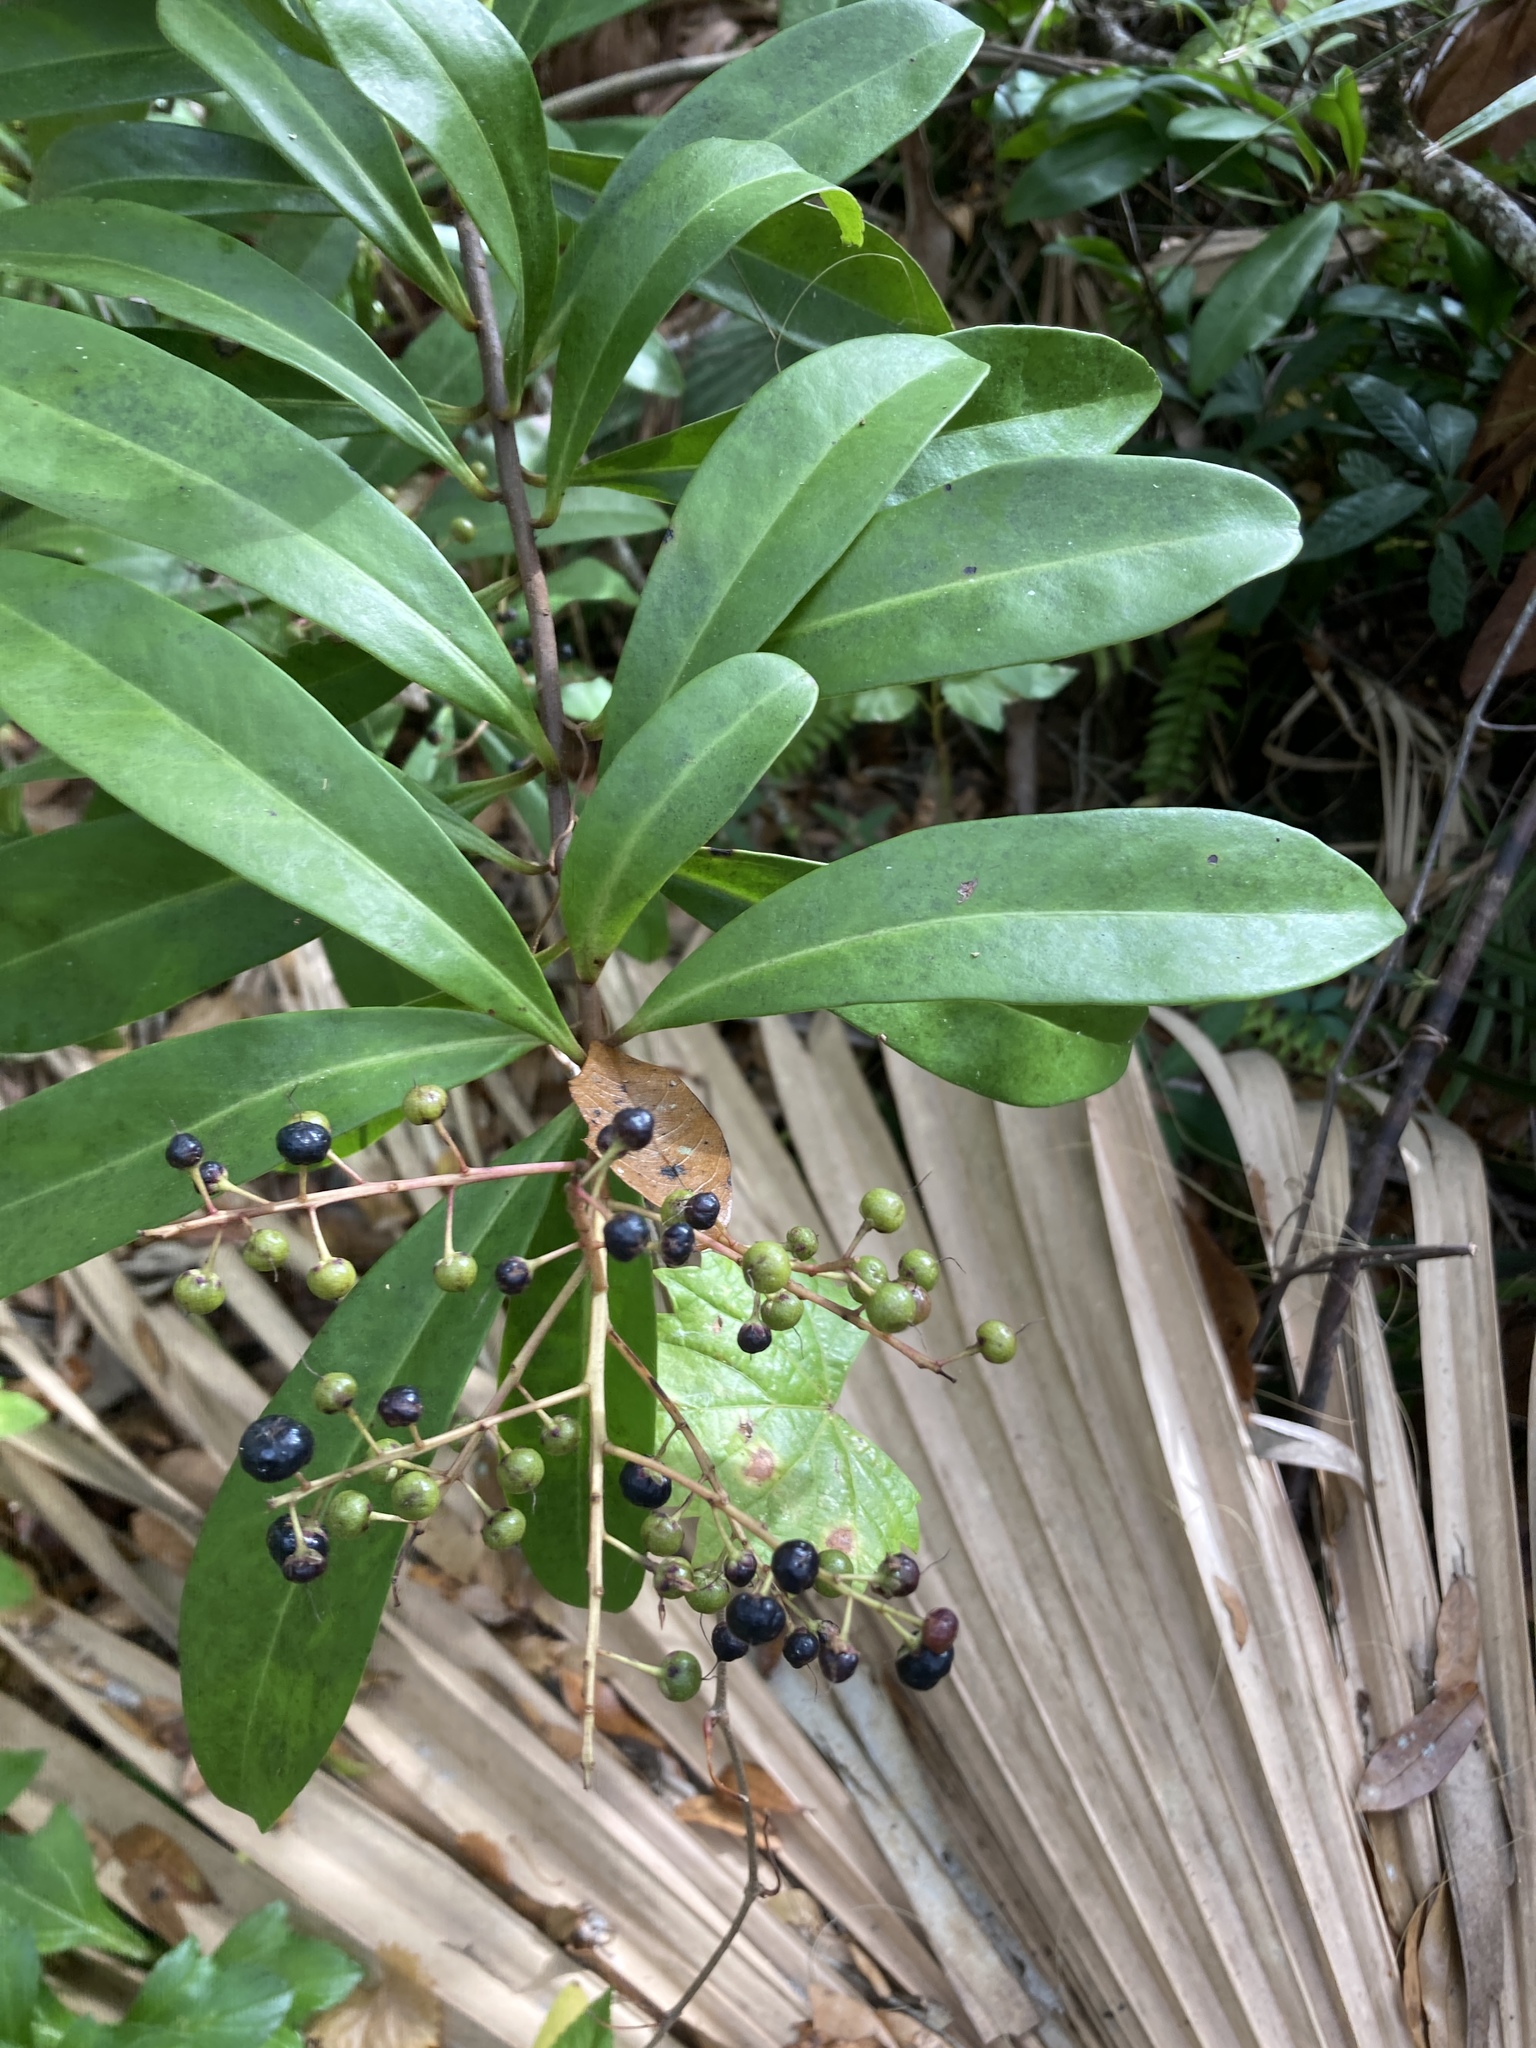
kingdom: Plantae
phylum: Tracheophyta
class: Magnoliopsida
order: Ericales
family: Primulaceae
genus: Ardisia
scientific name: Ardisia escallonioides
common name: Island marlberry
